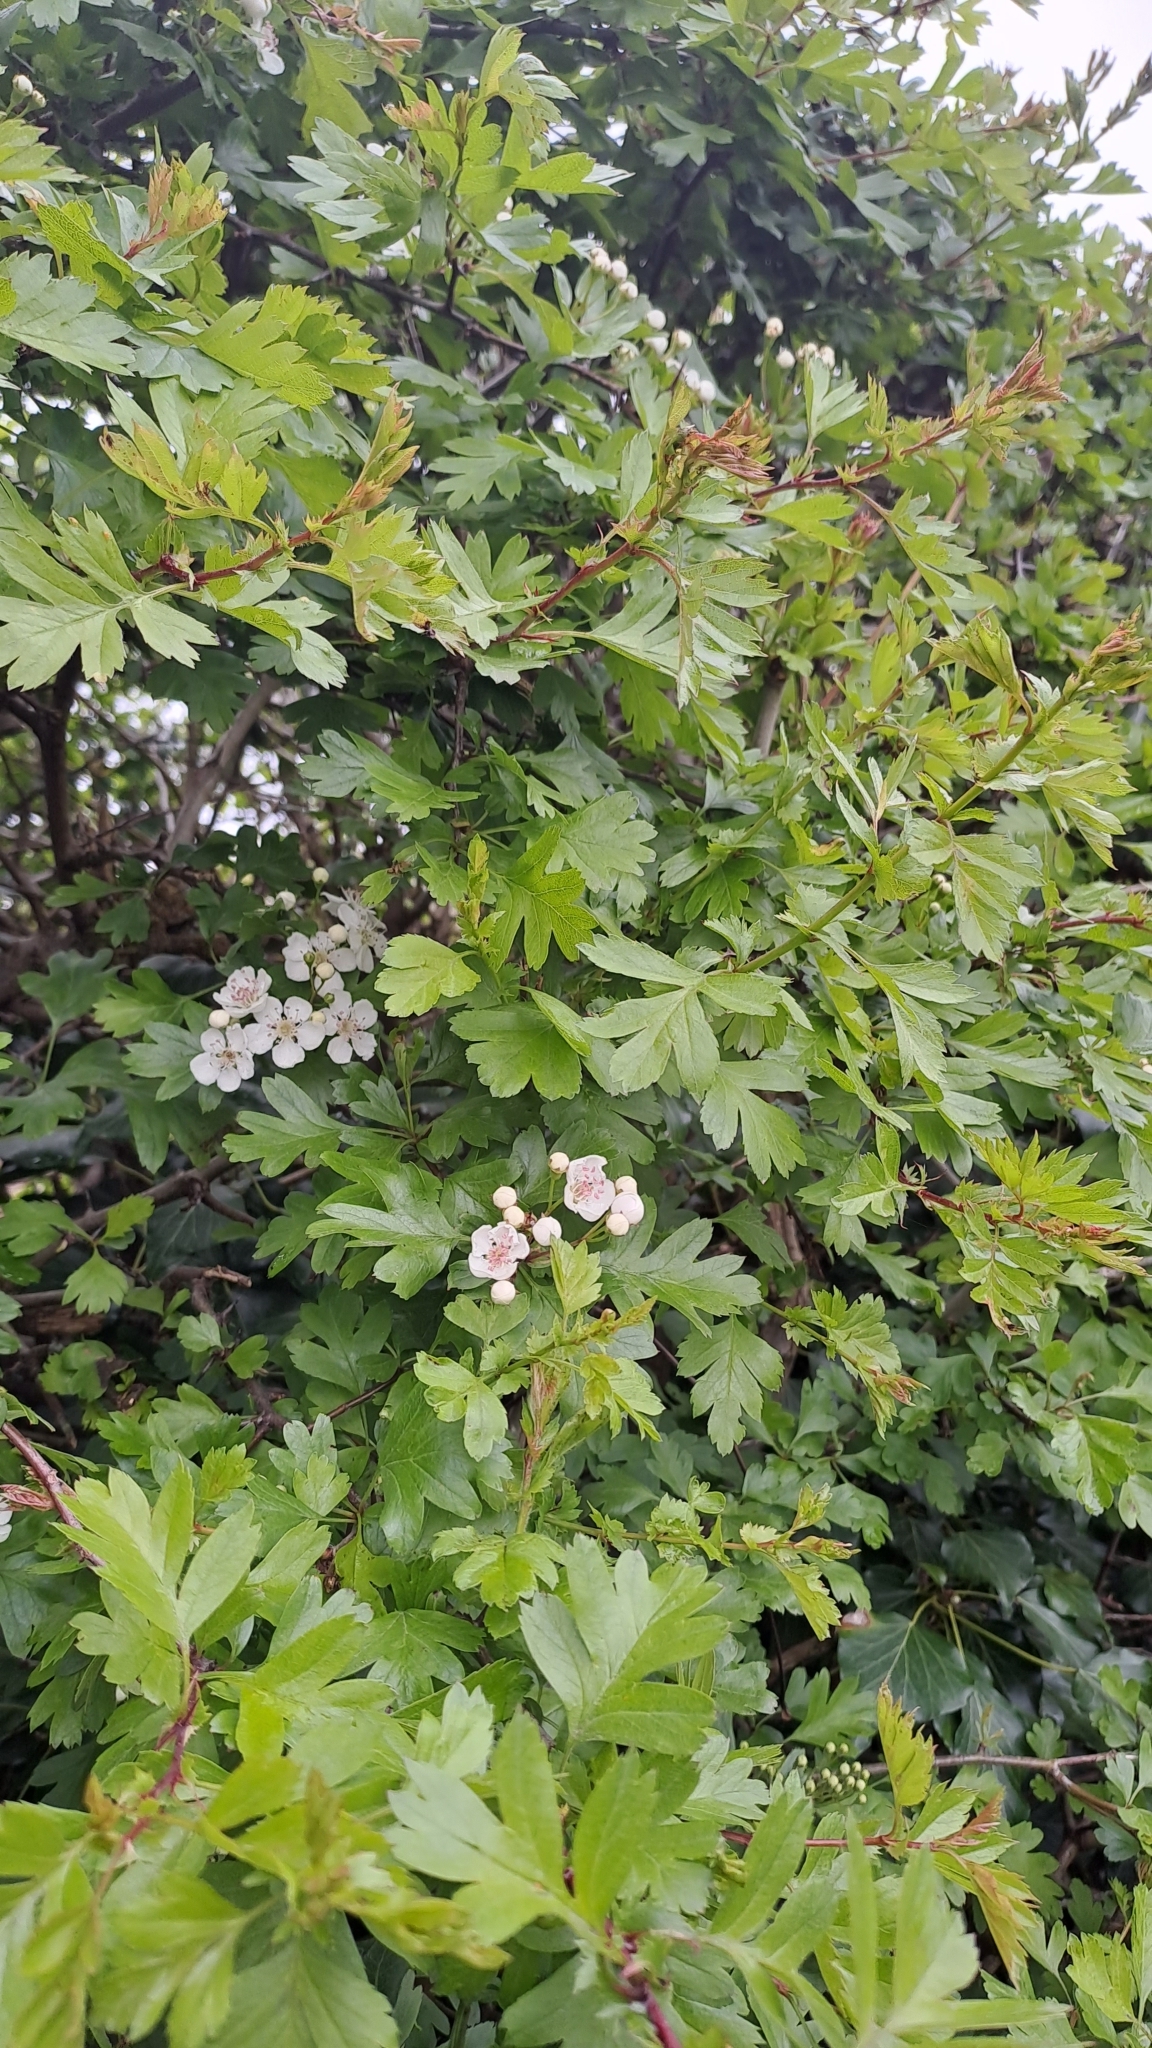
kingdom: Plantae
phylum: Tracheophyta
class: Magnoliopsida
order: Rosales
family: Rosaceae
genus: Crataegus
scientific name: Crataegus monogyna
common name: Hawthorn
